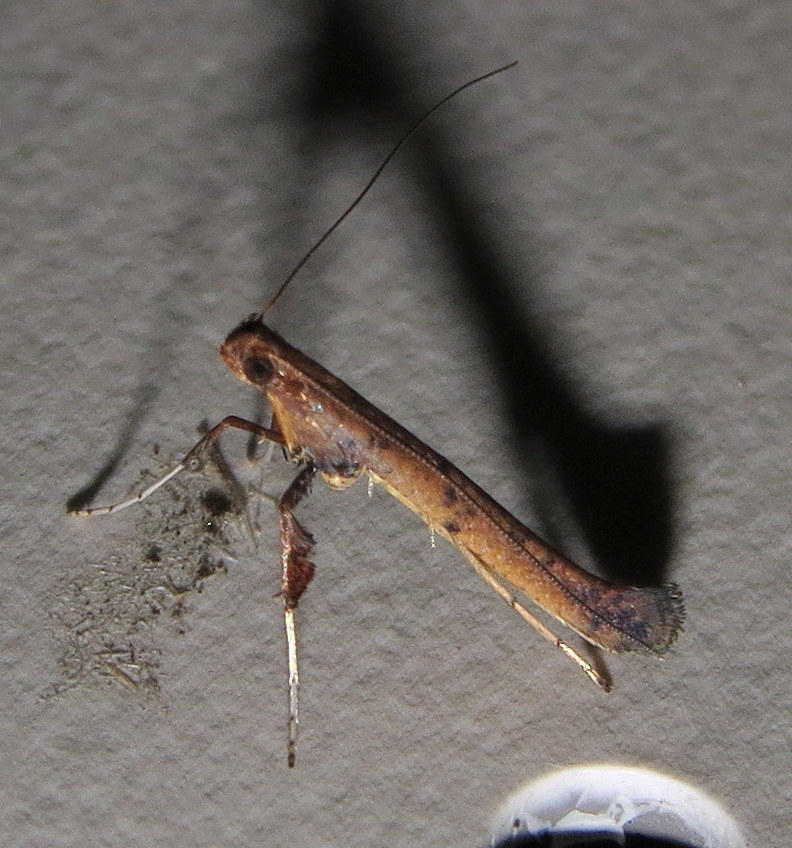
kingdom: Animalia
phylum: Arthropoda
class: Insecta
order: Lepidoptera
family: Gracillariidae
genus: Caloptilia
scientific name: Caloptilia sassafrasella
